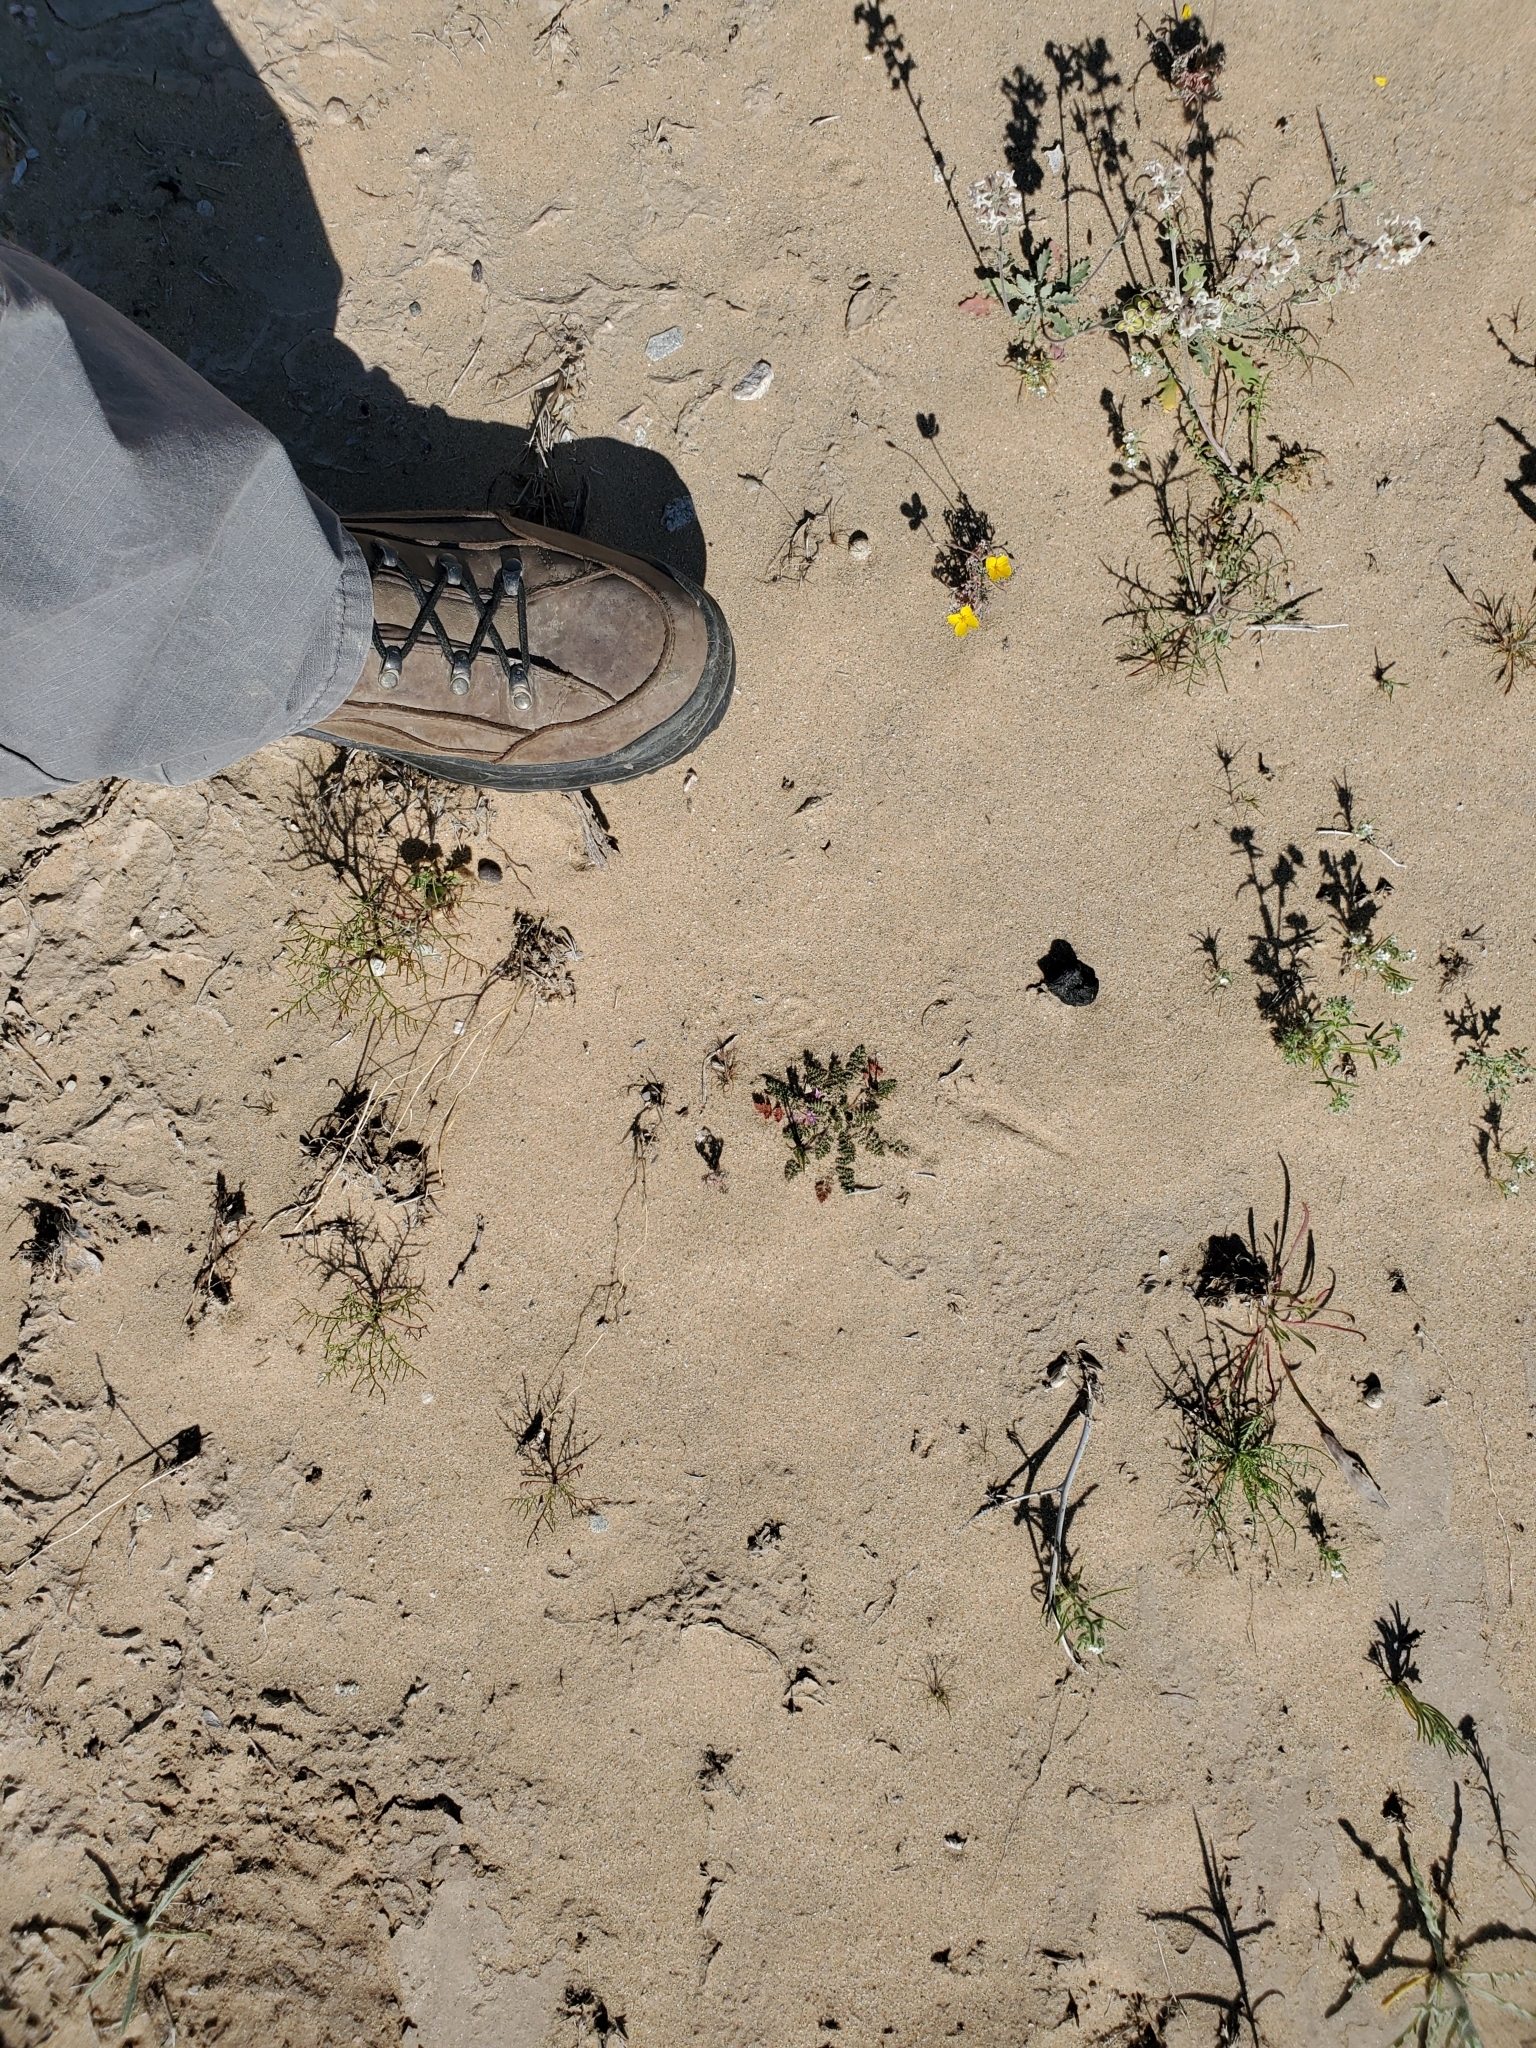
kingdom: Plantae
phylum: Tracheophyta
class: Magnoliopsida
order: Geraniales
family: Geraniaceae
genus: Erodium
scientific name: Erodium cicutarium
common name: Common stork's-bill
